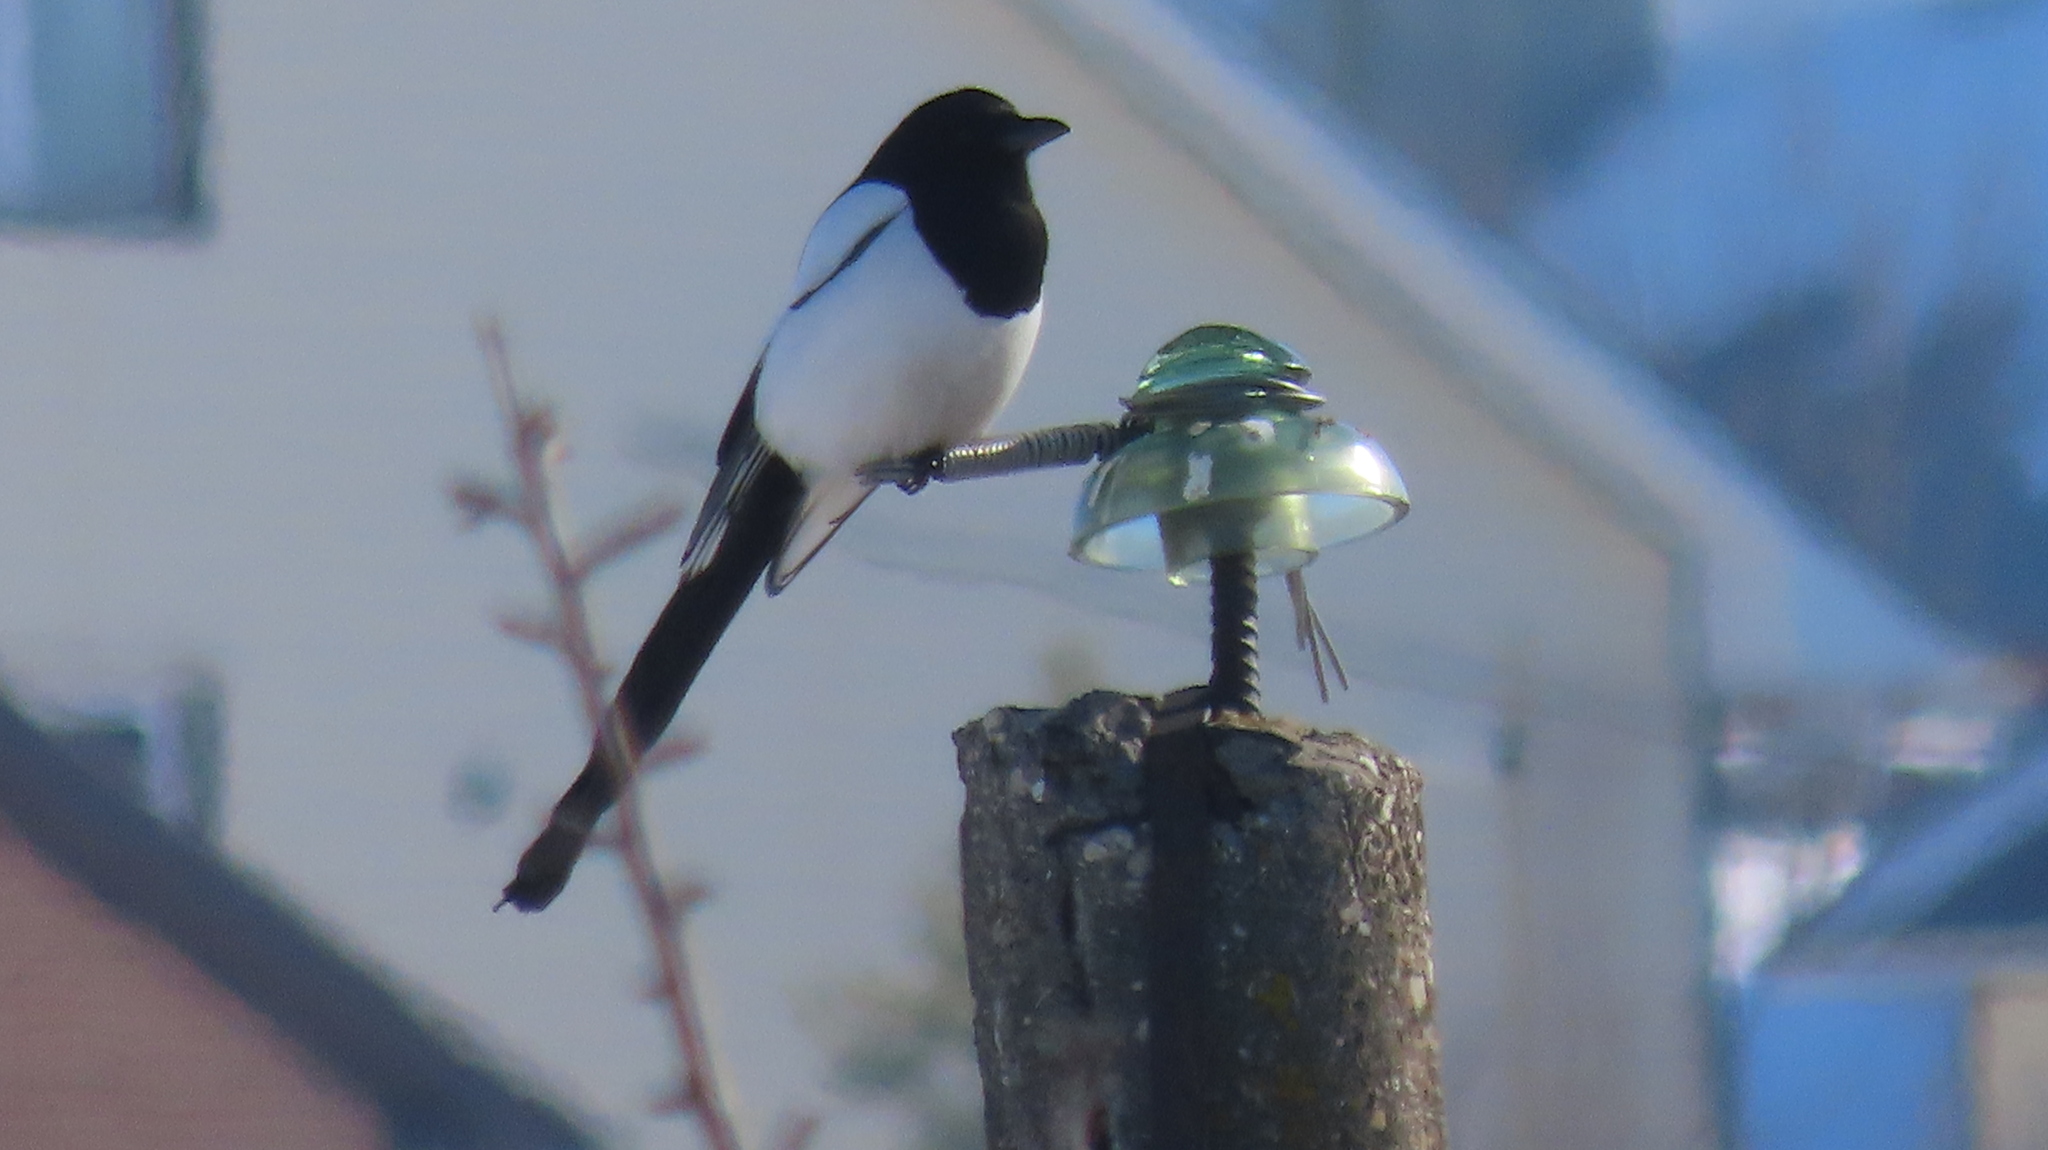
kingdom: Animalia
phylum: Chordata
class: Aves
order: Passeriformes
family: Corvidae
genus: Pica
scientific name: Pica pica
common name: Eurasian magpie
